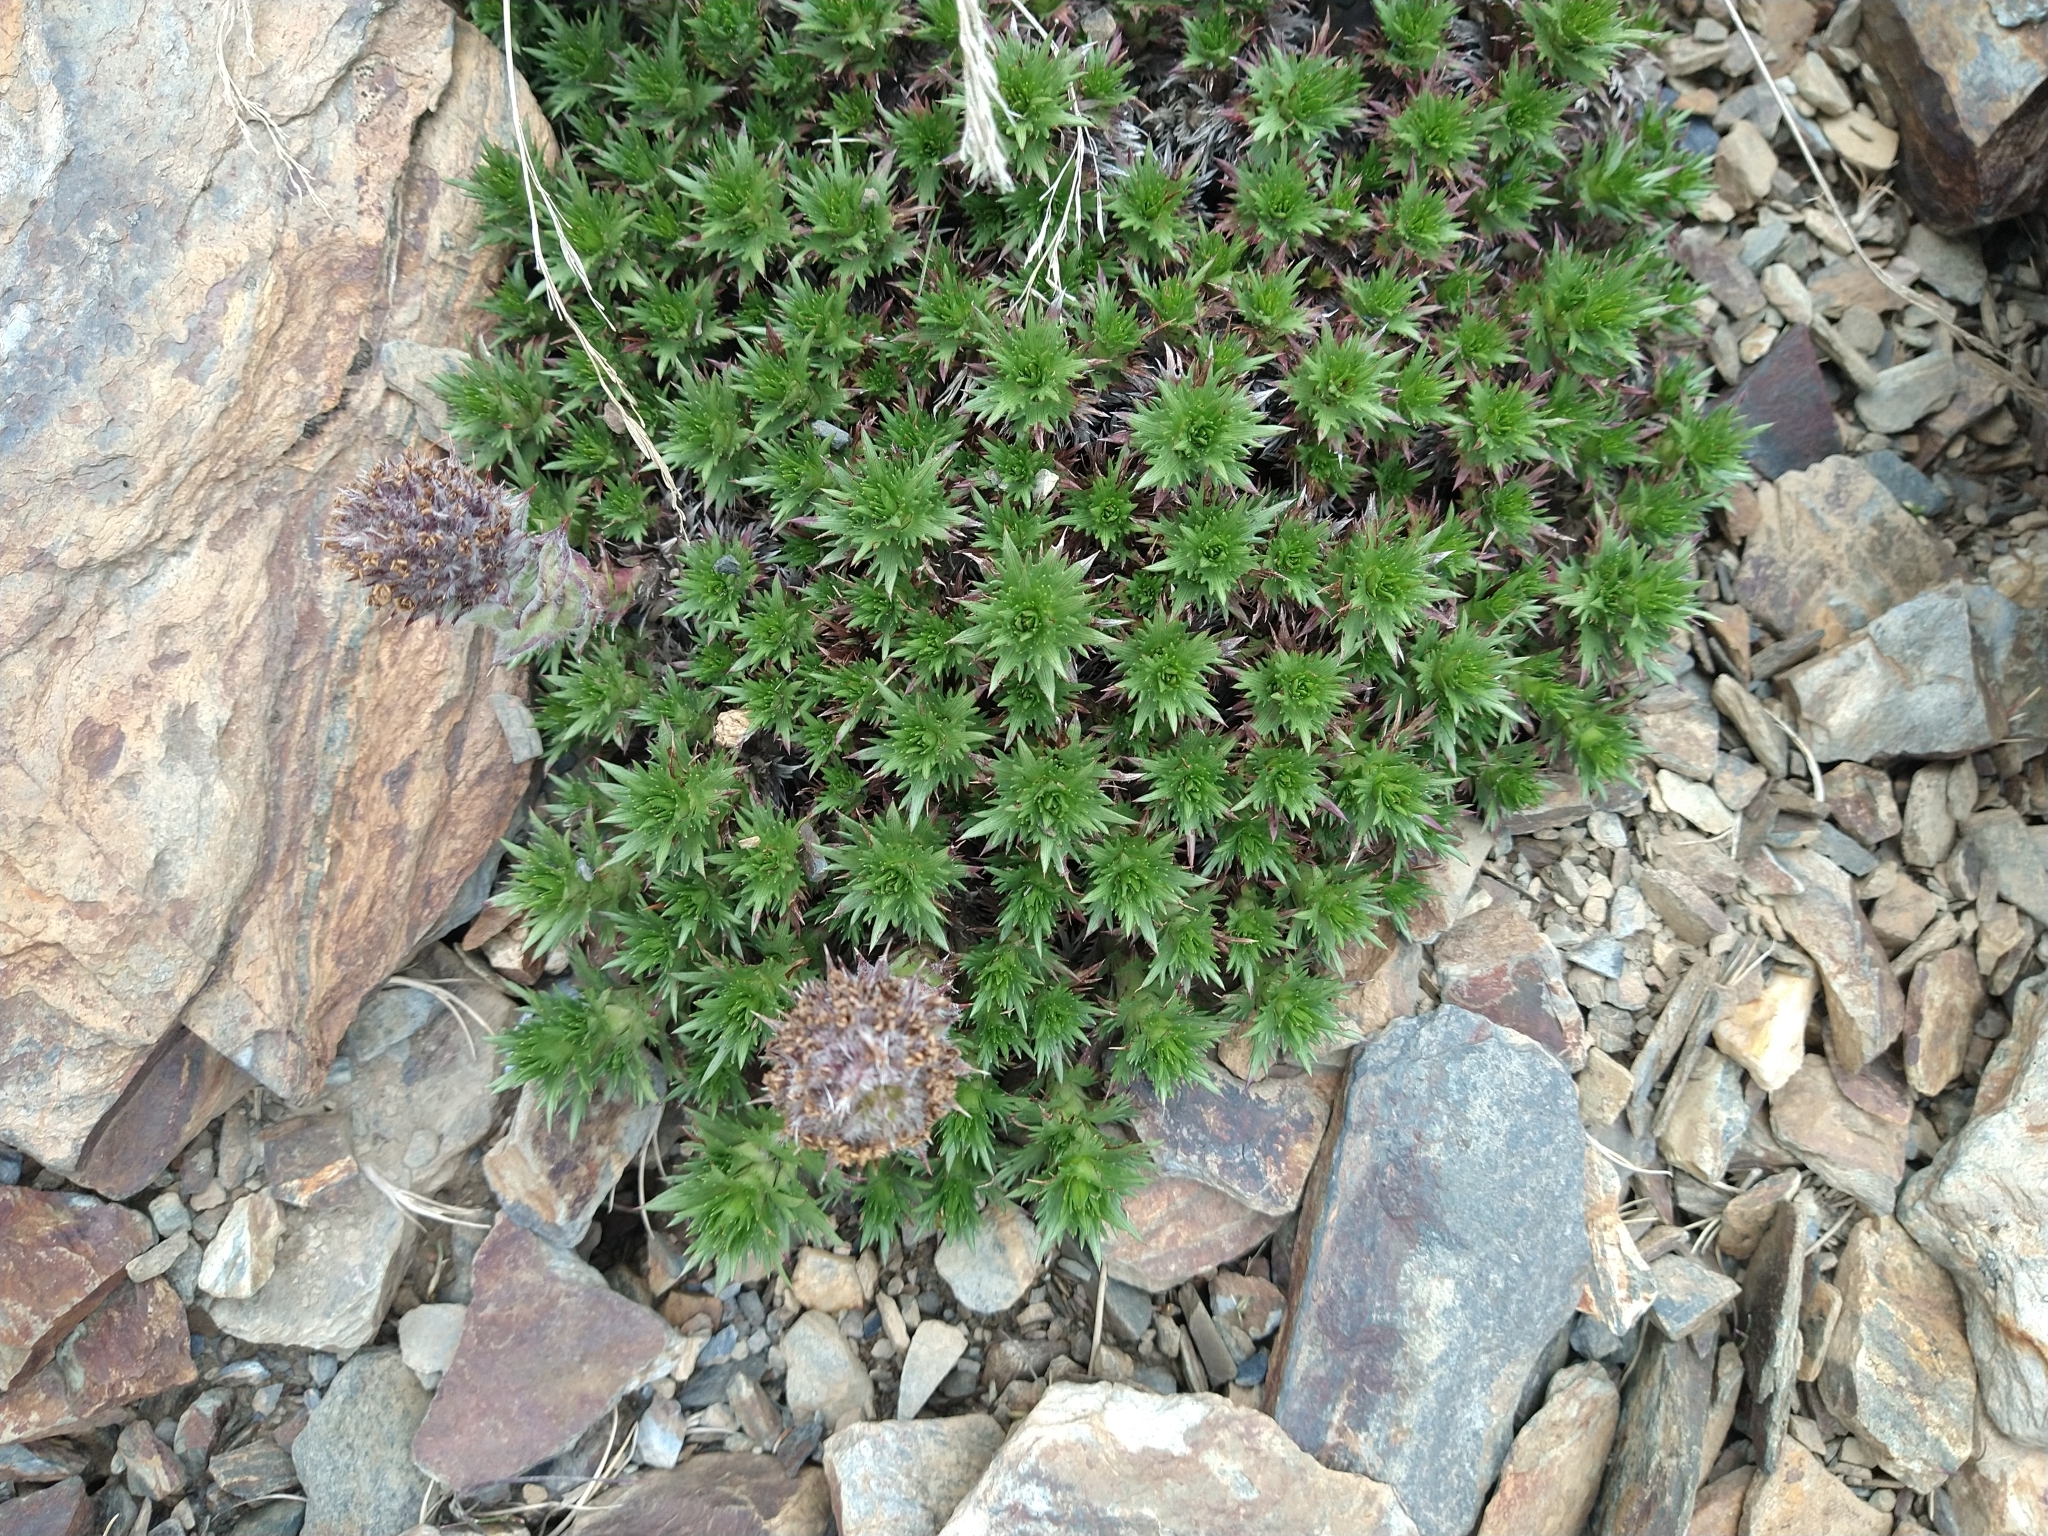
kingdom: Plantae
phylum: Tracheophyta
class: Magnoliopsida
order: Asterales
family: Asteraceae
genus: Nassauvia
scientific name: Nassauvia magellanica
